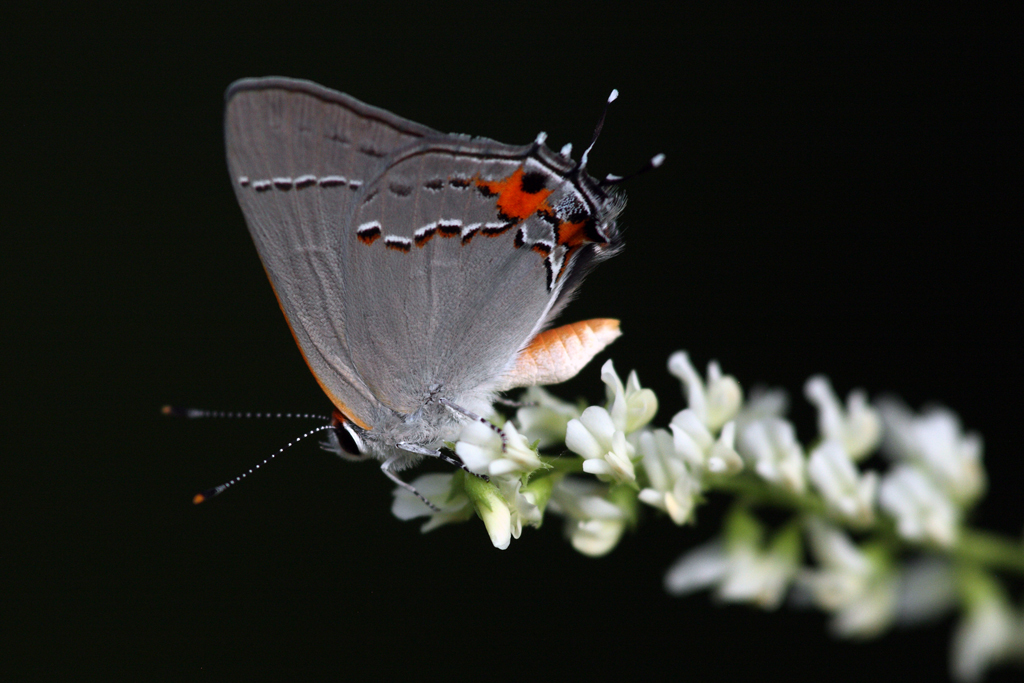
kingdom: Animalia
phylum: Arthropoda
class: Insecta
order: Lepidoptera
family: Lycaenidae
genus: Strymon
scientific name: Strymon melinus
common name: Gray hairstreak
